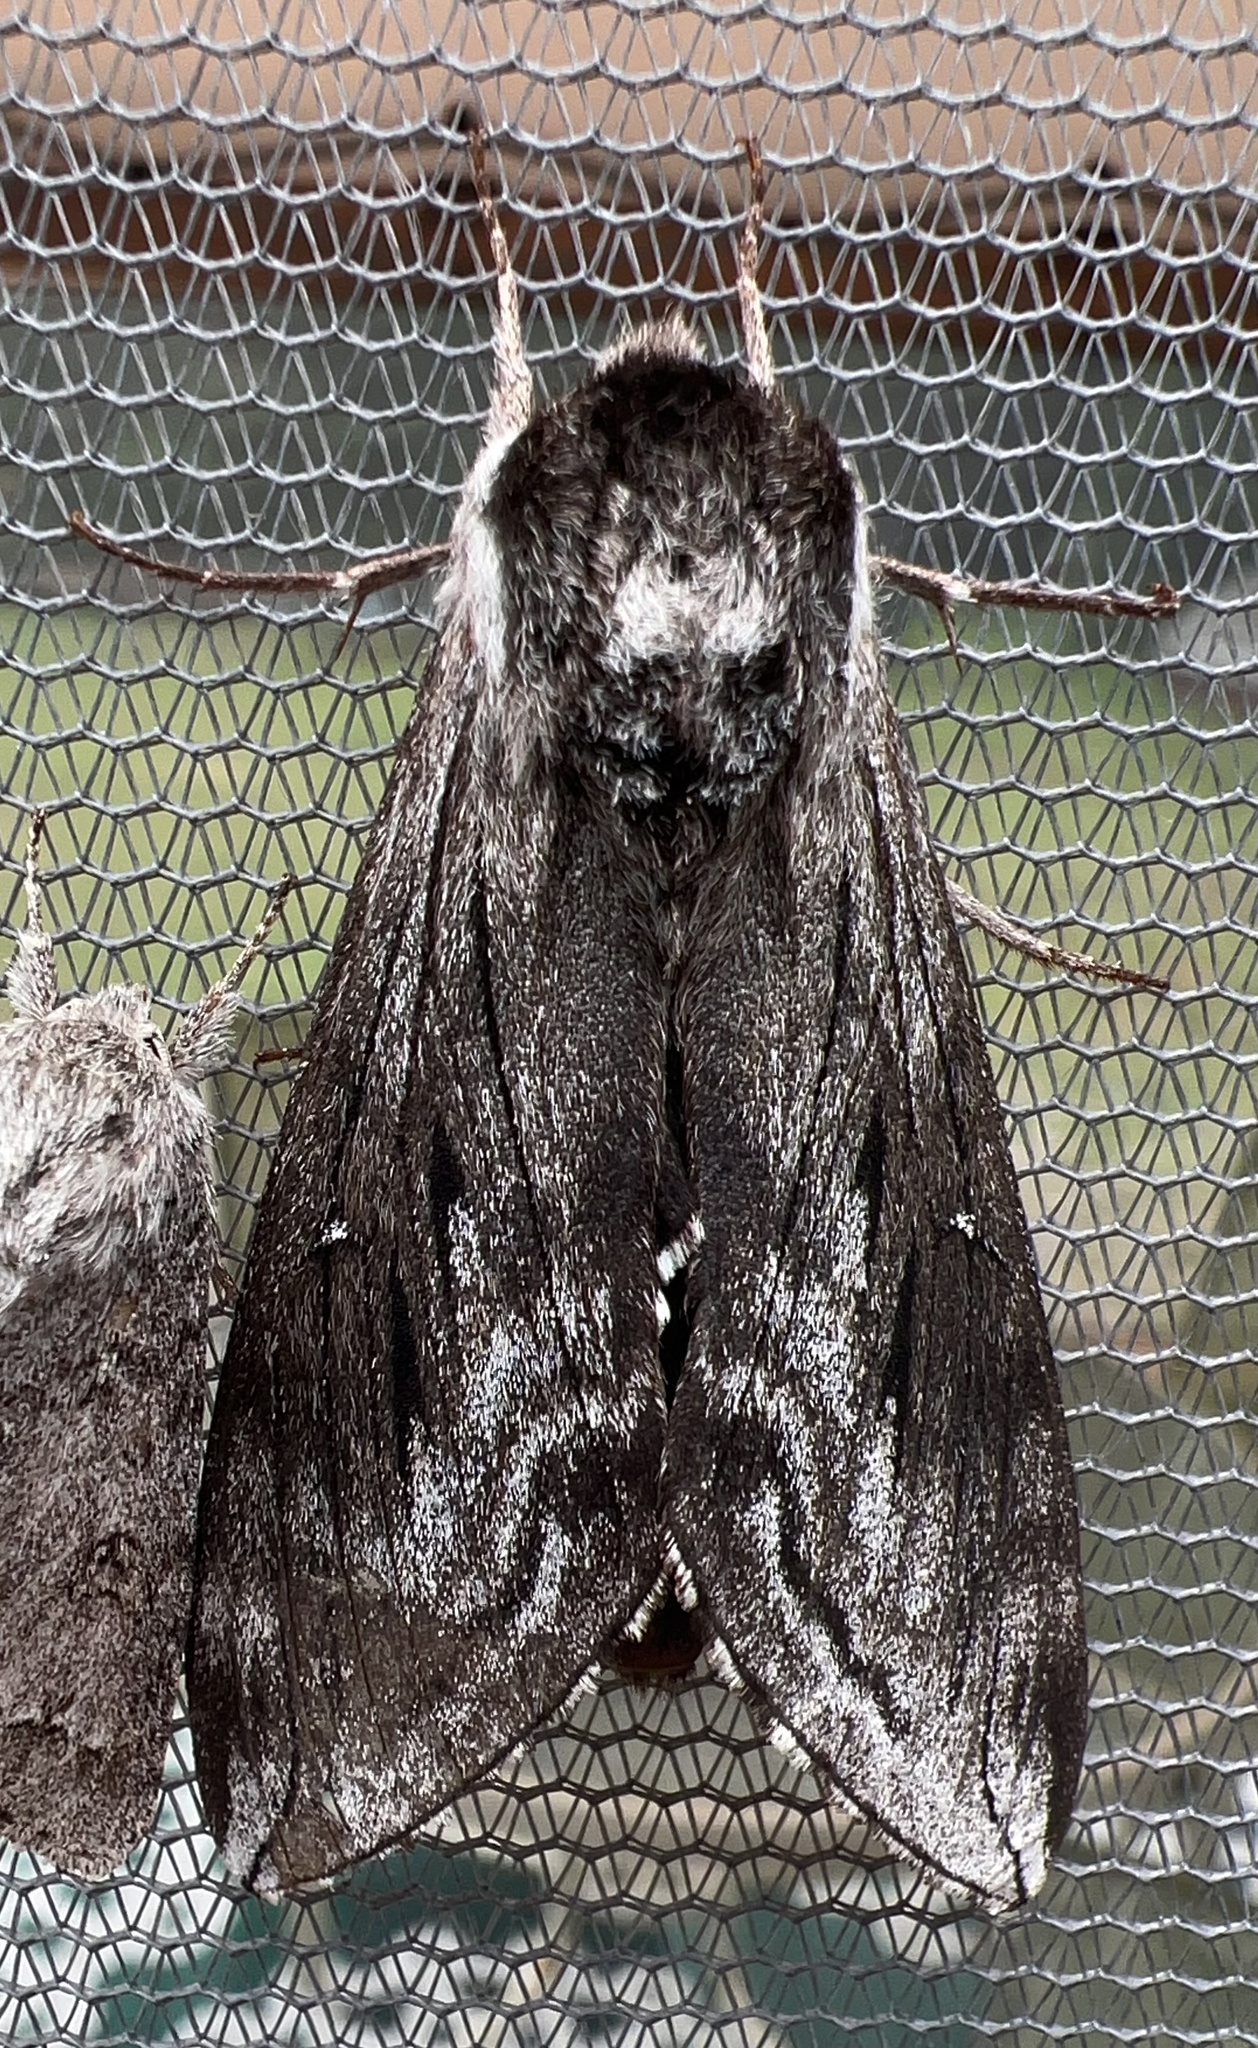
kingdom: Animalia
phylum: Arthropoda
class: Insecta
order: Lepidoptera
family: Sphingidae
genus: Sphinx
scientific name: Sphinx poecila
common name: Northern apple sphinx
